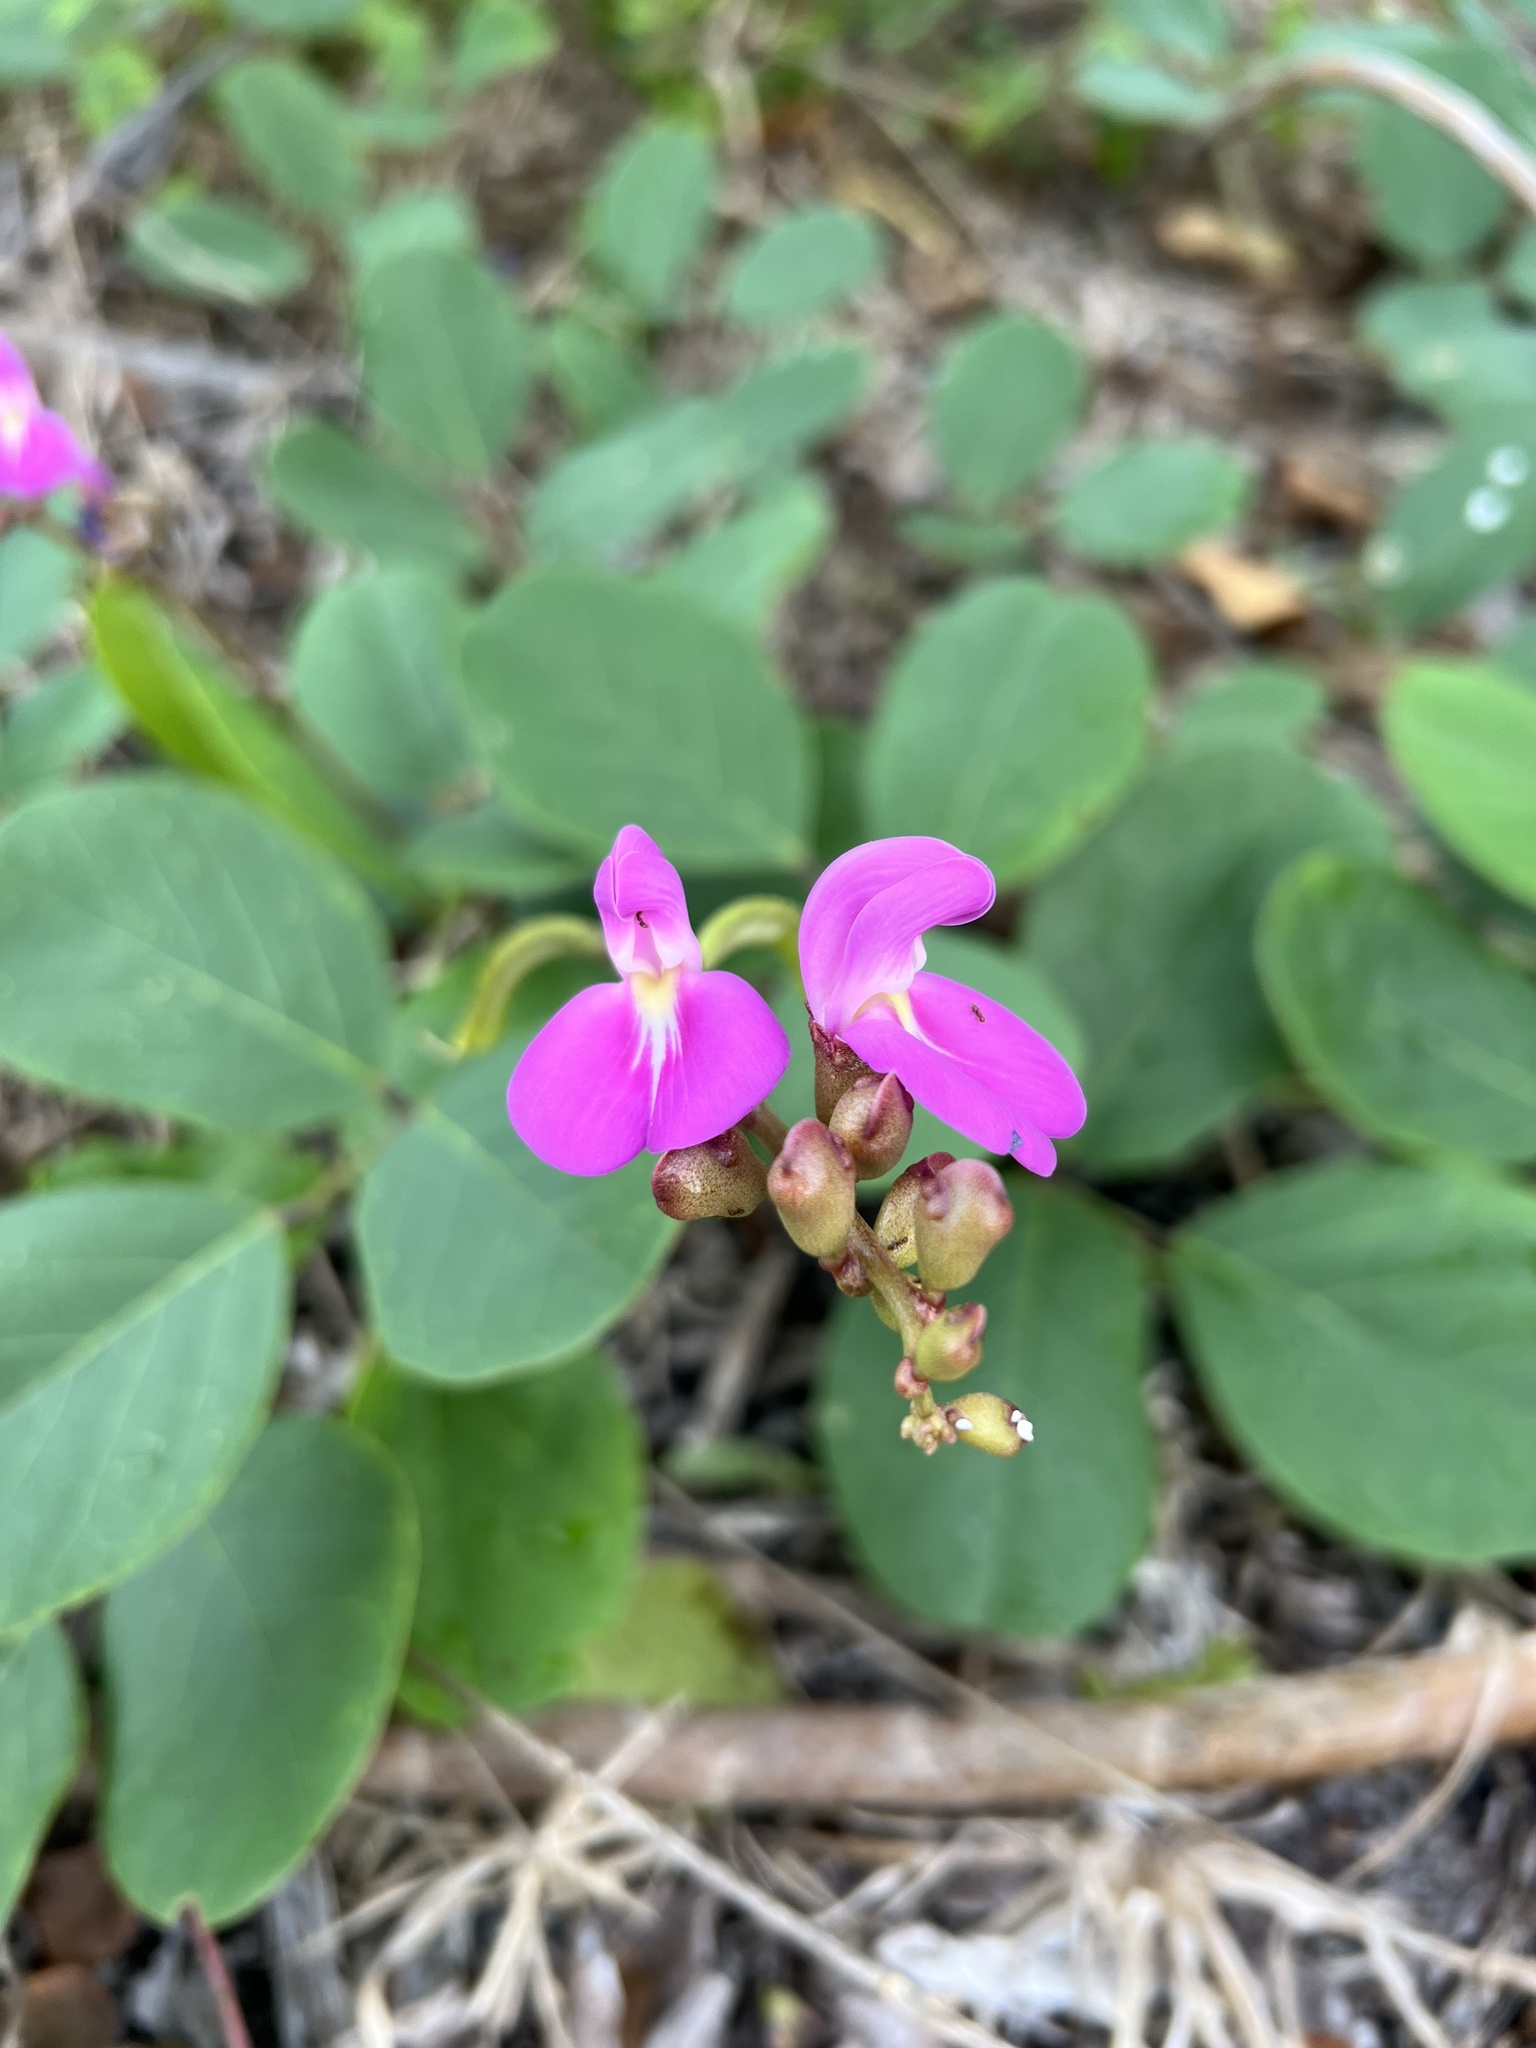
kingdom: Plantae
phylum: Tracheophyta
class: Magnoliopsida
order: Fabales
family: Fabaceae
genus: Canavalia
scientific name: Canavalia rosea
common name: Beach-bean
